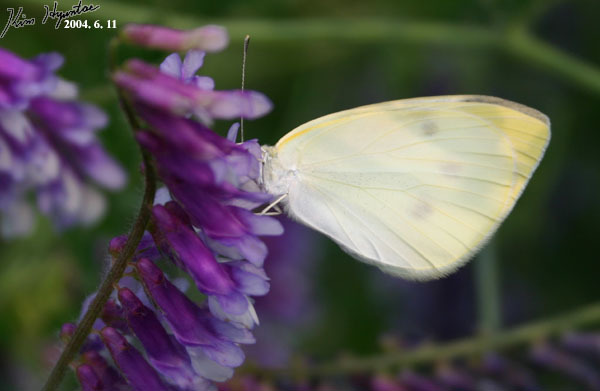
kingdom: Animalia
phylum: Arthropoda
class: Insecta
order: Lepidoptera
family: Pieridae
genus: Pieris
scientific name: Pieris rapae
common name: Small white
